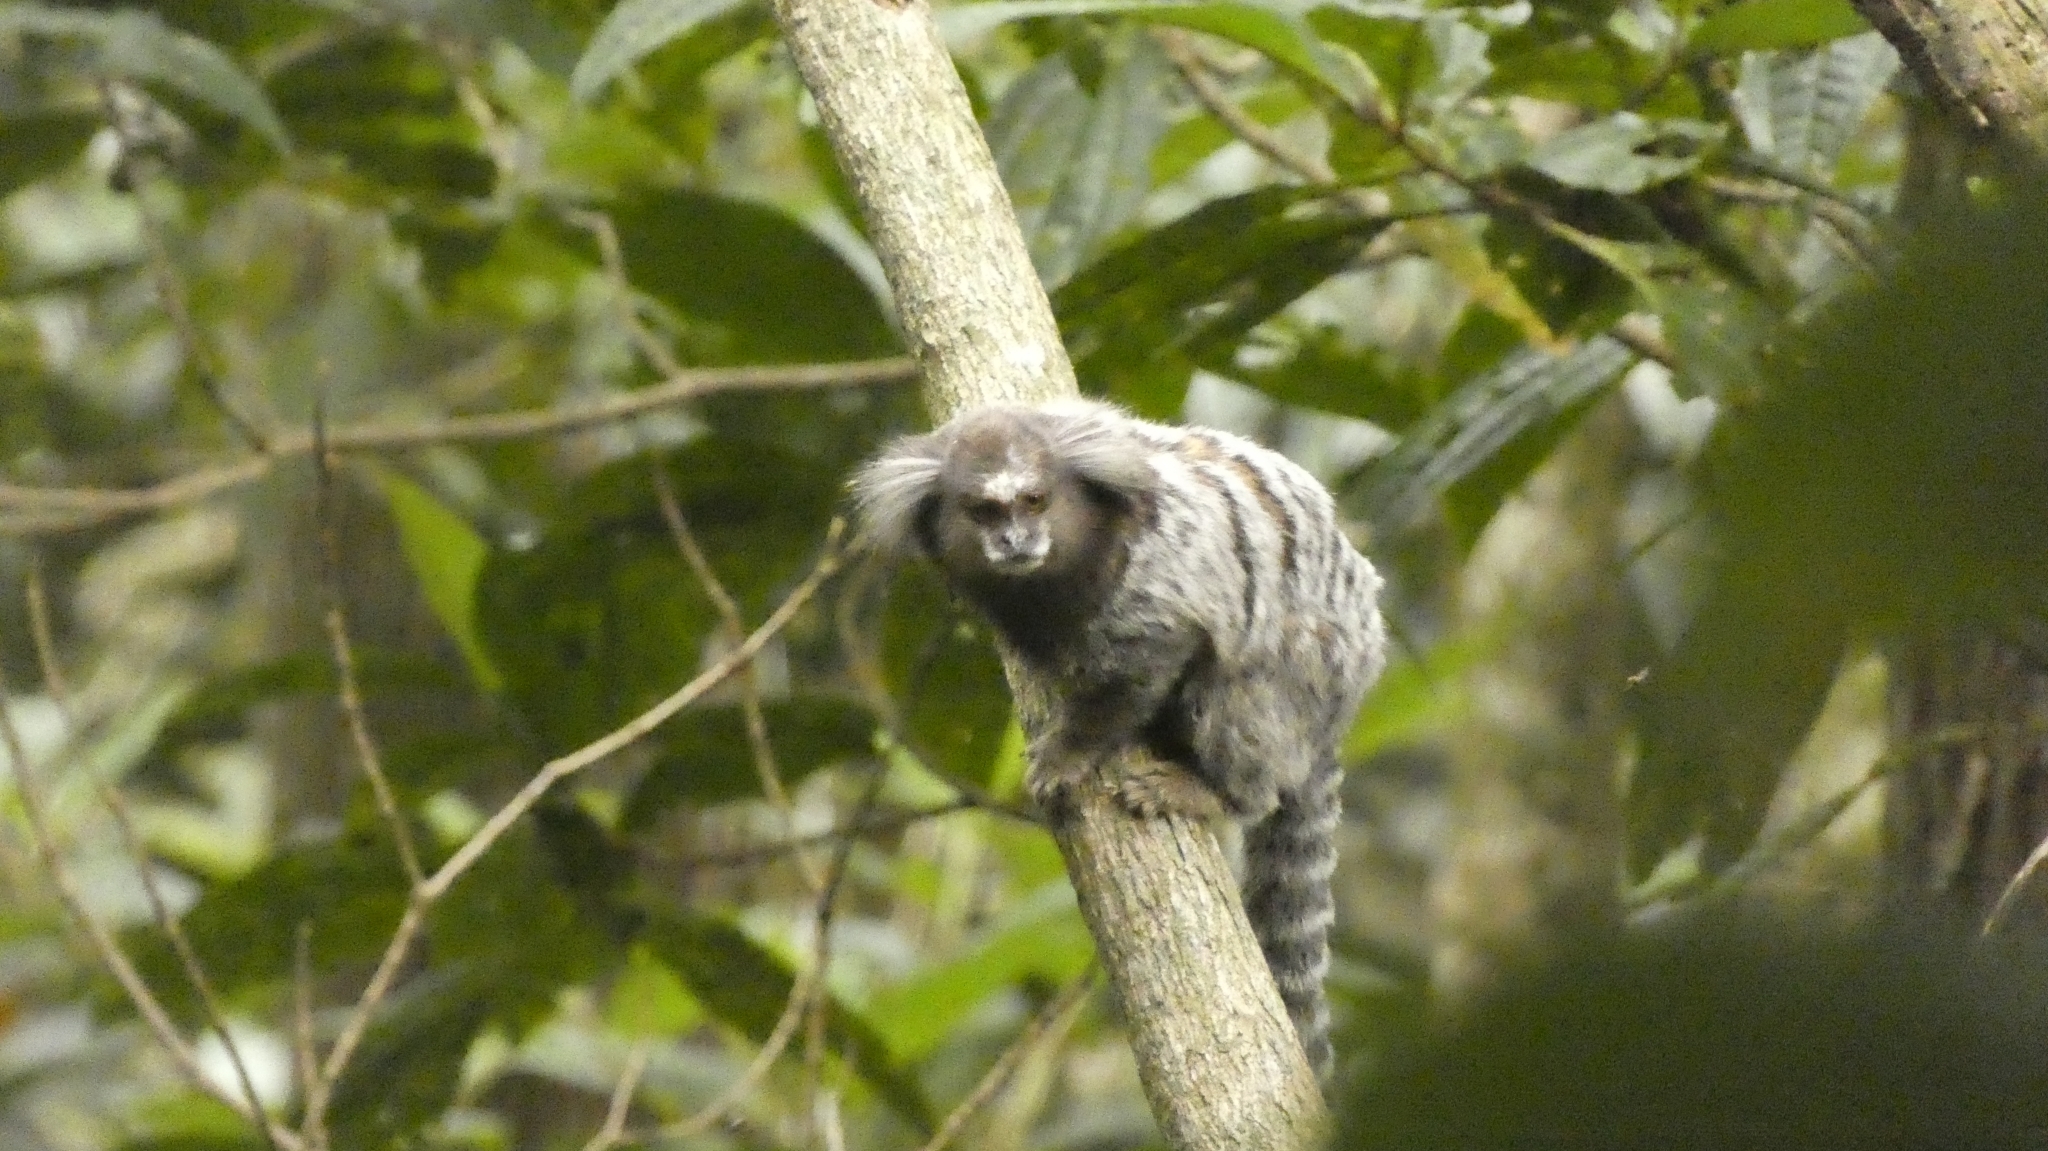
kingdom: Animalia
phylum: Chordata
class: Mammalia
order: Primates
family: Callitrichidae
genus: Callithrix
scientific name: Callithrix jacchus
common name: Common marmoset
